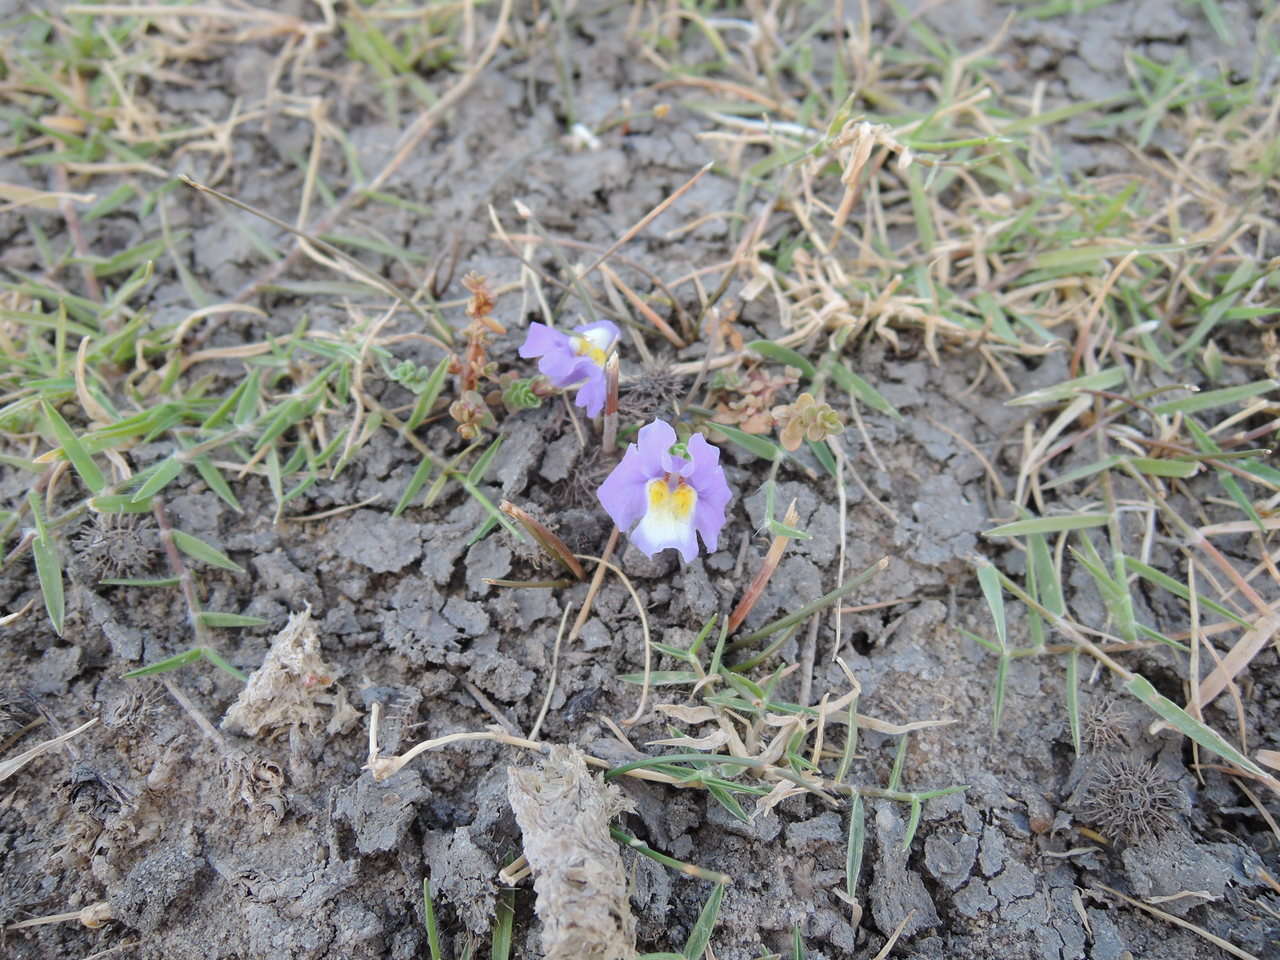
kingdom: Plantae
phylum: Tracheophyta
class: Magnoliopsida
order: Lamiales
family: Phrymaceae
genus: Thyridia
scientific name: Thyridia repens
